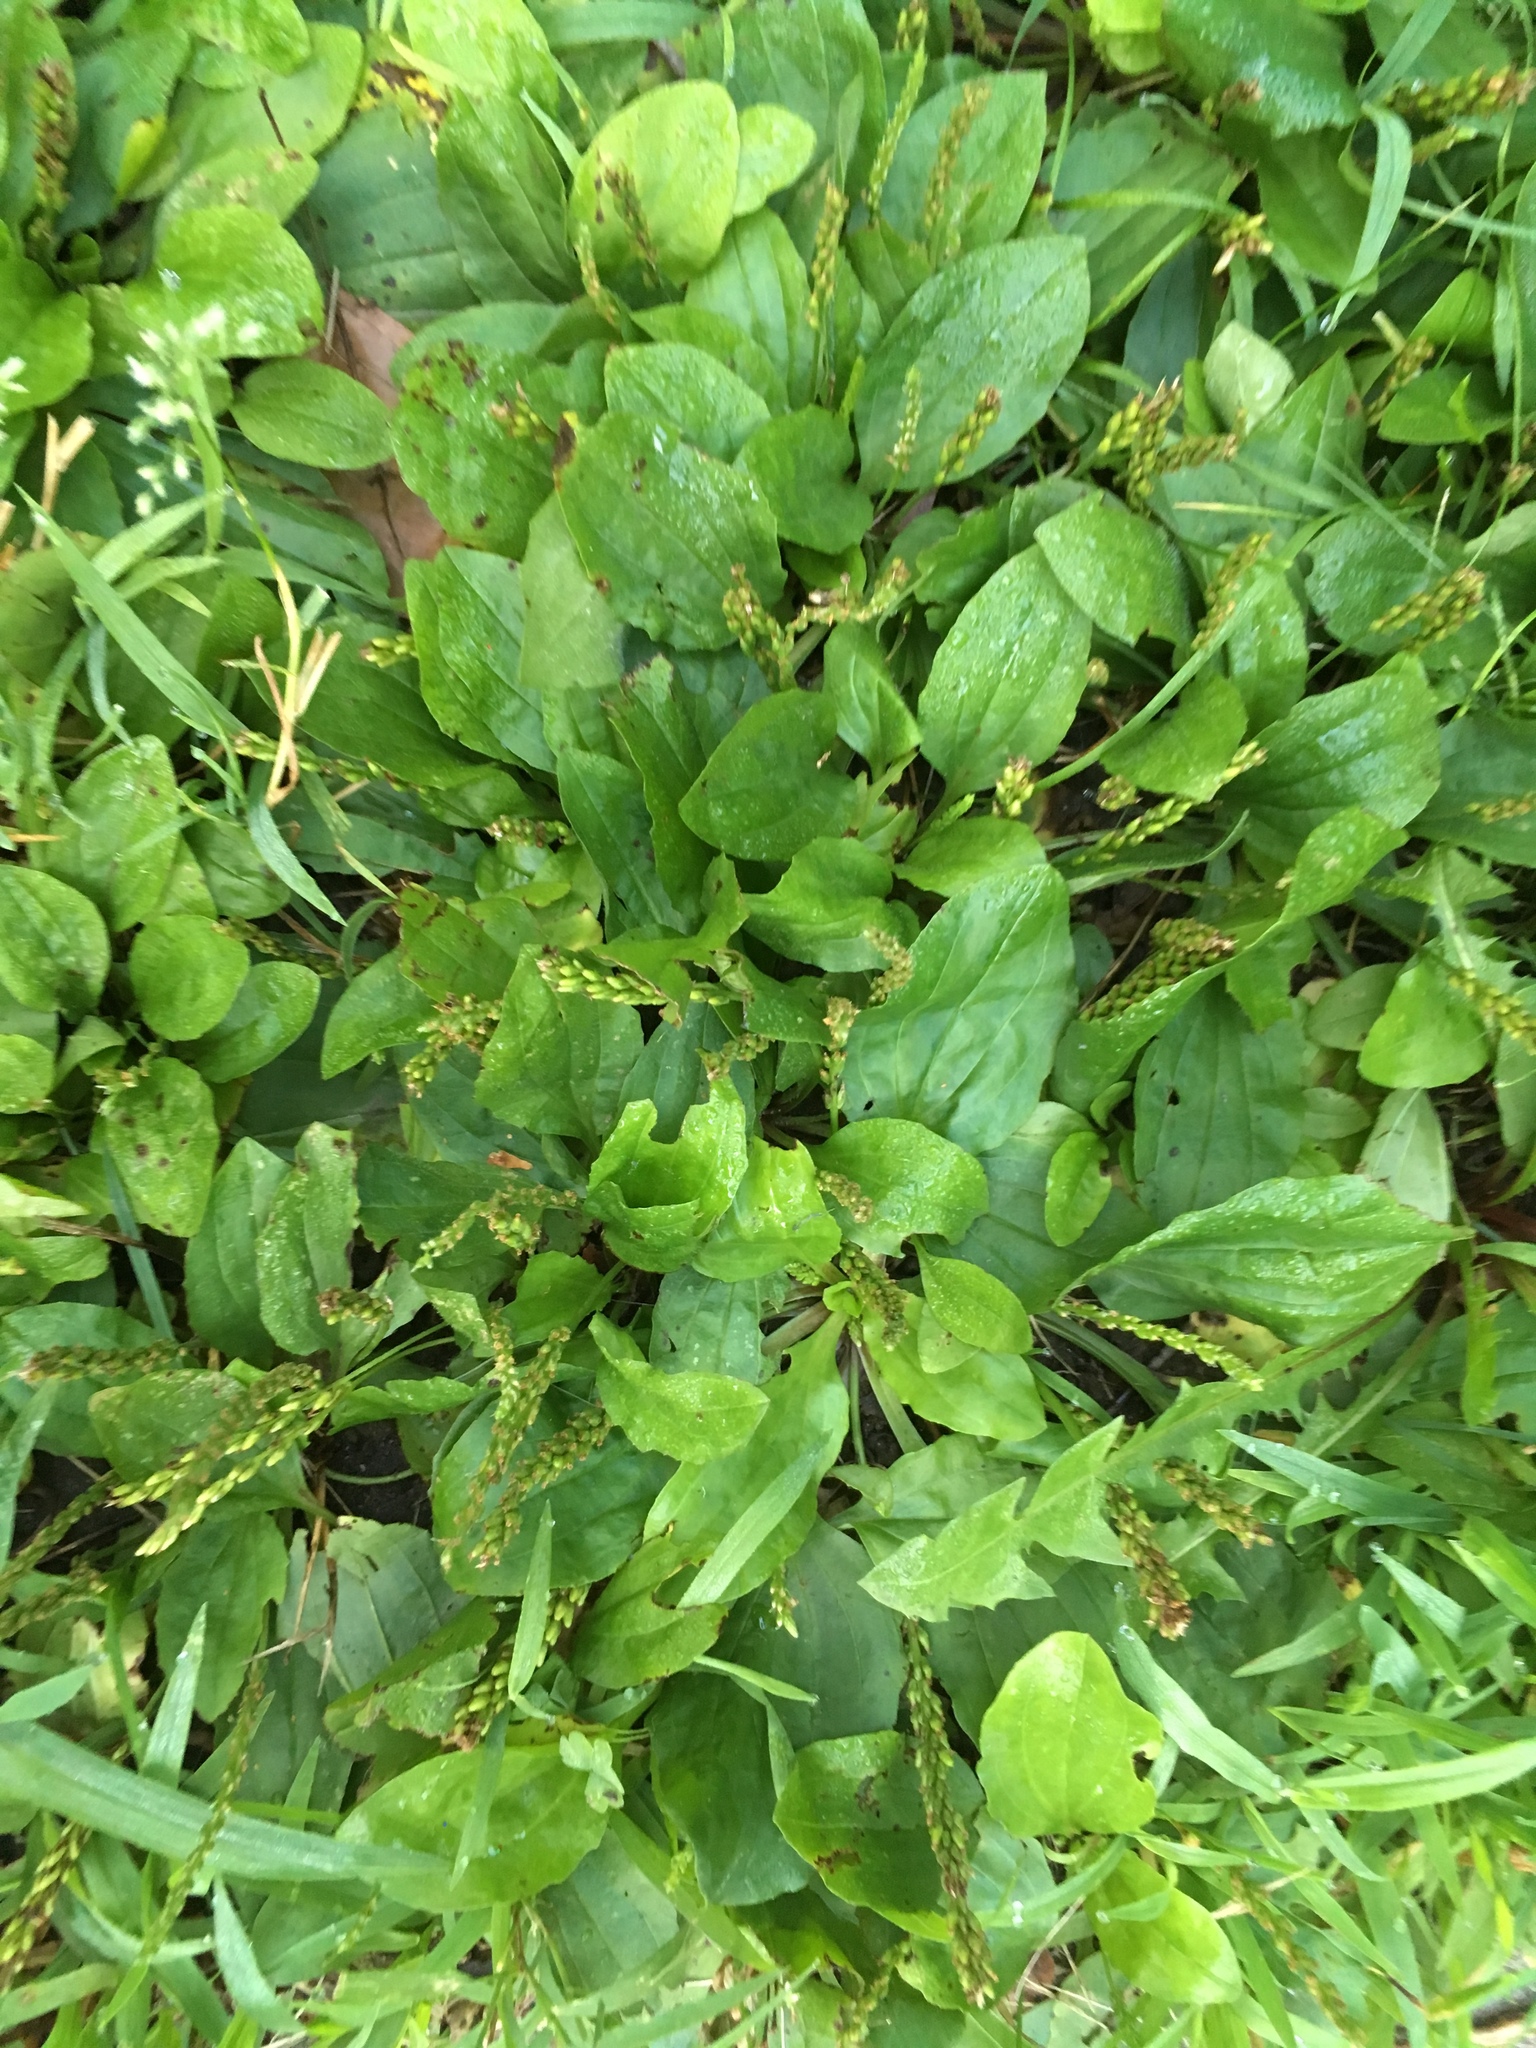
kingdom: Plantae
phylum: Tracheophyta
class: Magnoliopsida
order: Lamiales
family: Plantaginaceae
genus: Plantago
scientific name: Plantago rugelii
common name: American plantain
